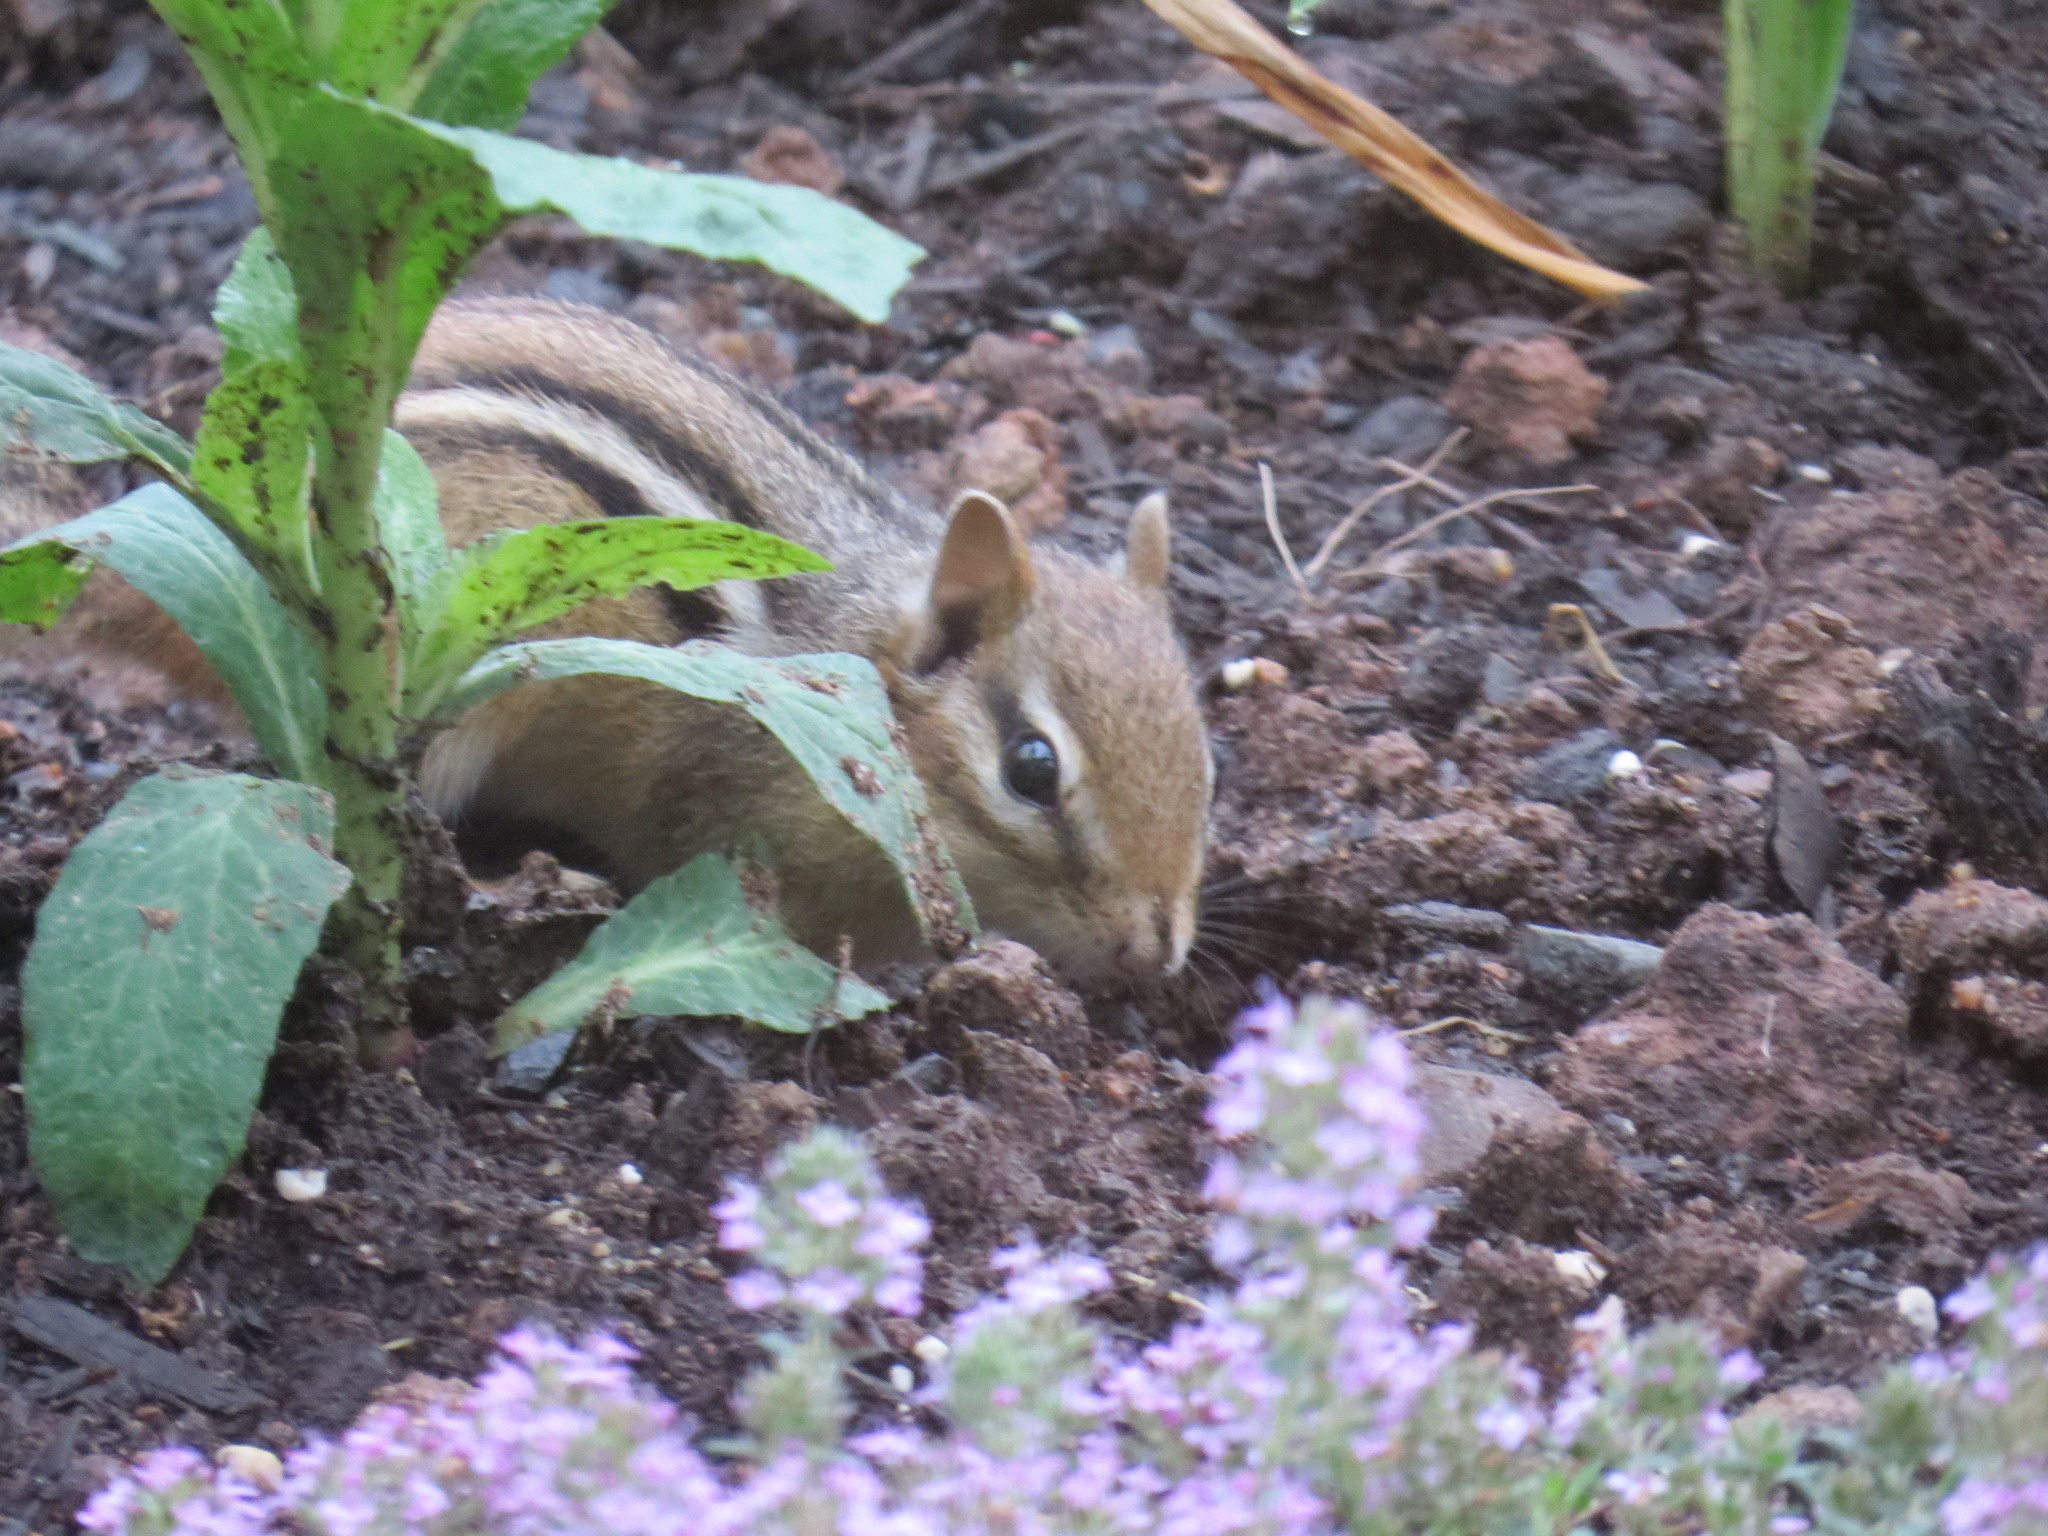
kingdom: Animalia
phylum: Chordata
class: Mammalia
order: Rodentia
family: Sciuridae
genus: Tamias
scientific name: Tamias striatus
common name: Eastern chipmunk
